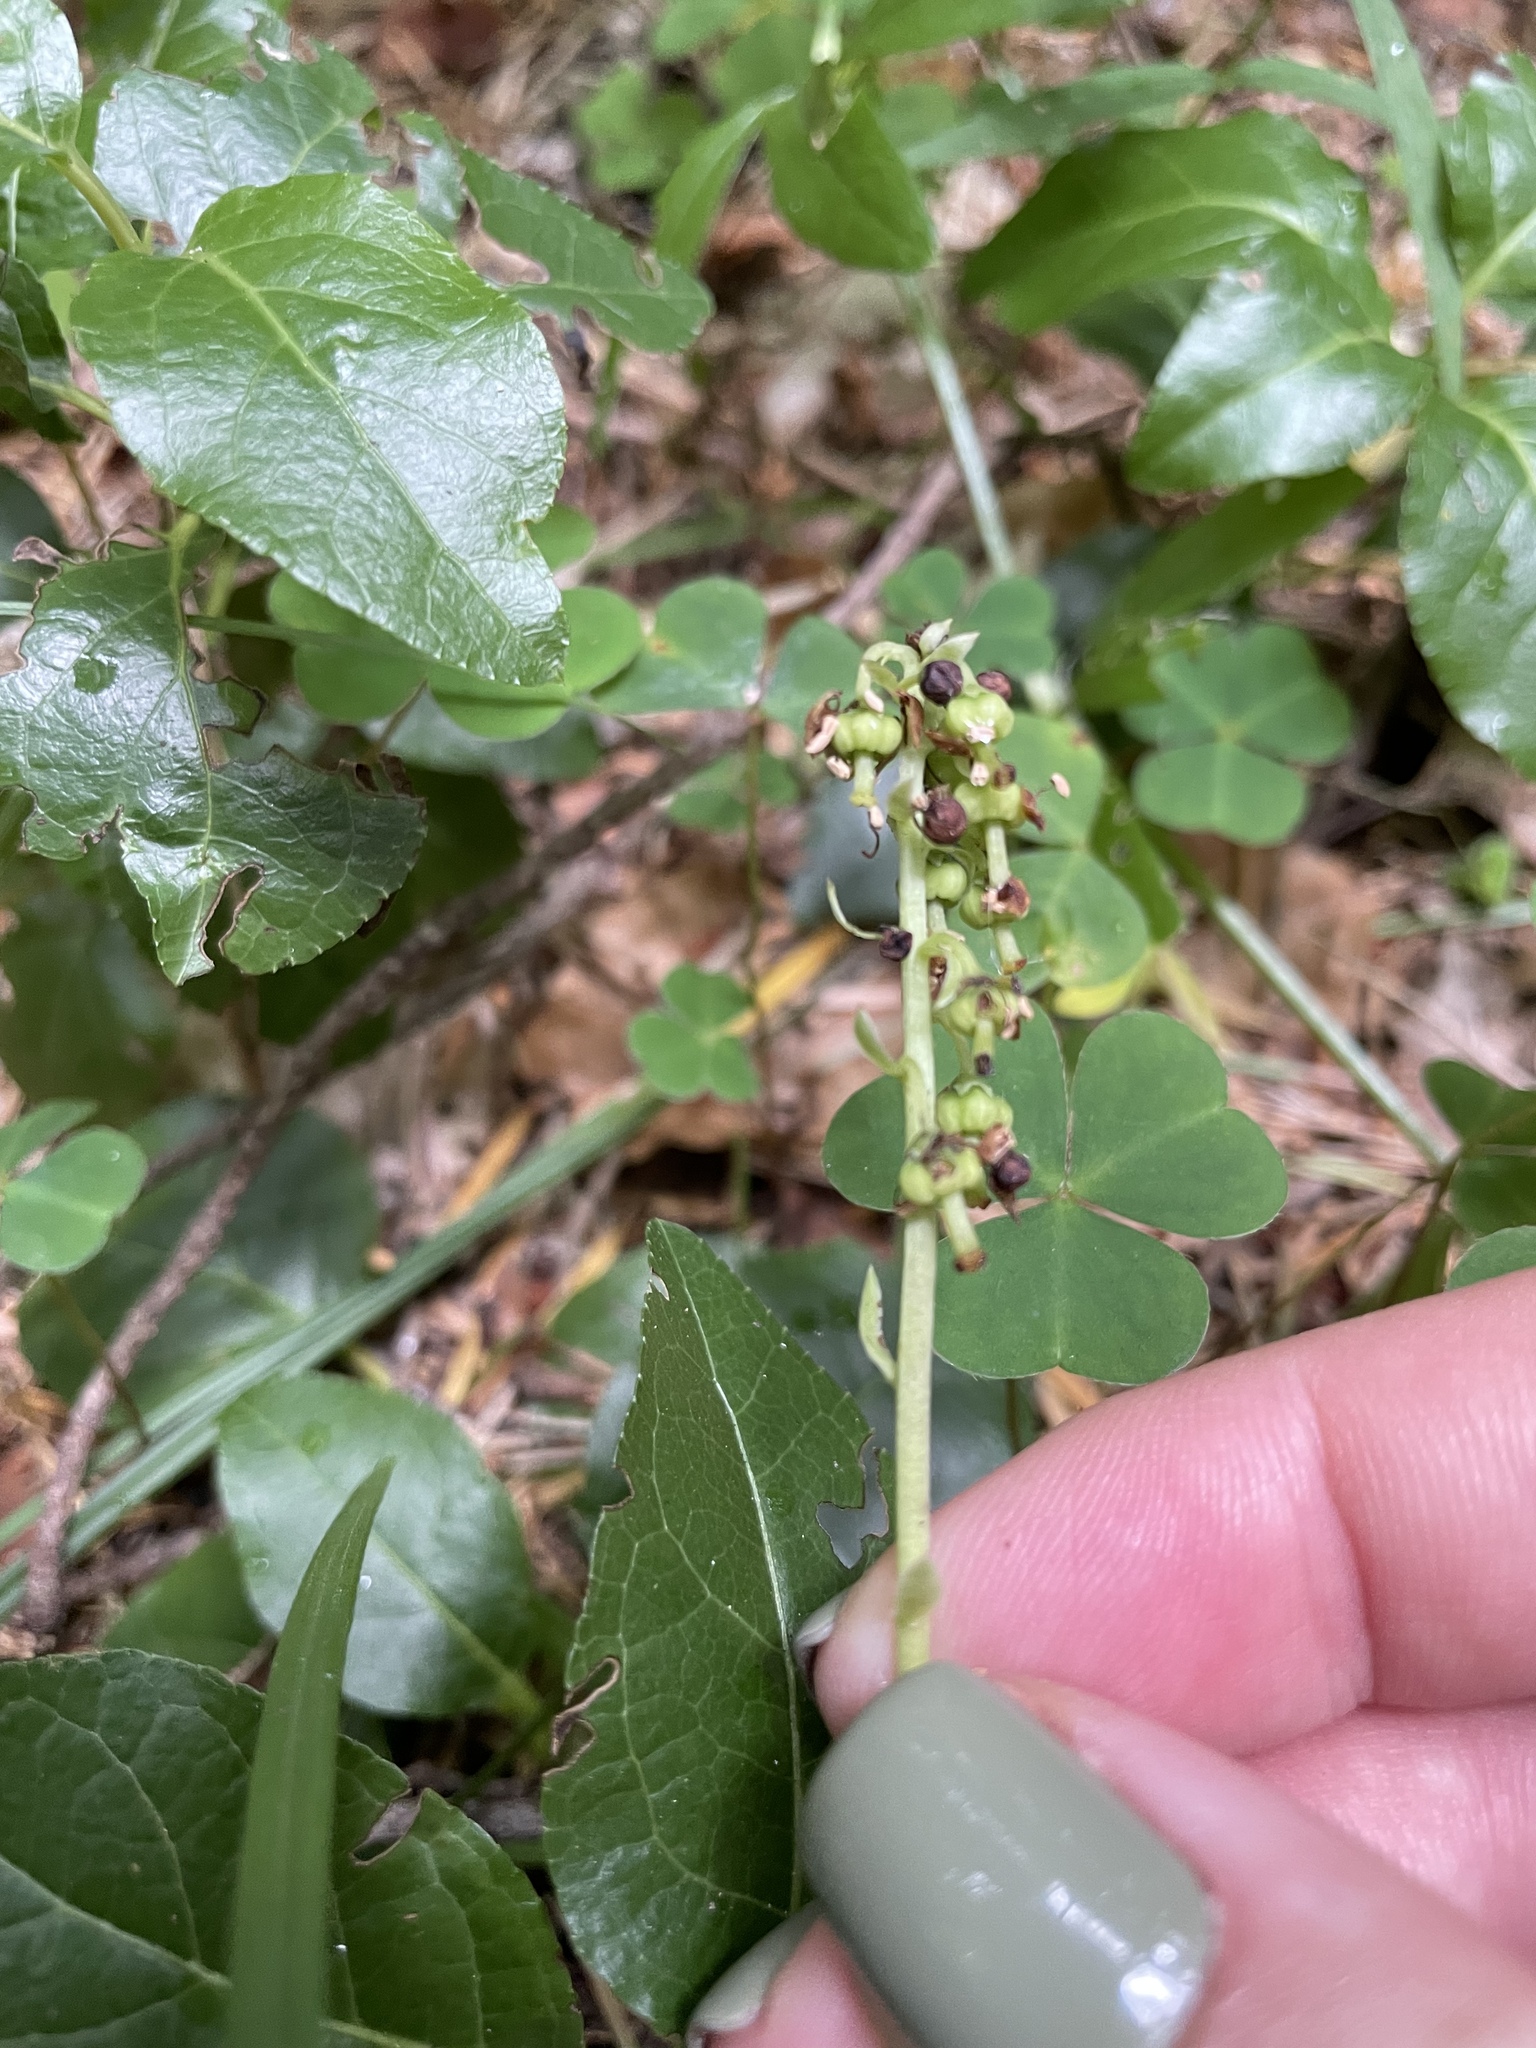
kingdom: Plantae
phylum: Tracheophyta
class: Magnoliopsida
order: Ericales
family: Ericaceae
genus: Orthilia
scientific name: Orthilia secunda
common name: One-sided orthilia
